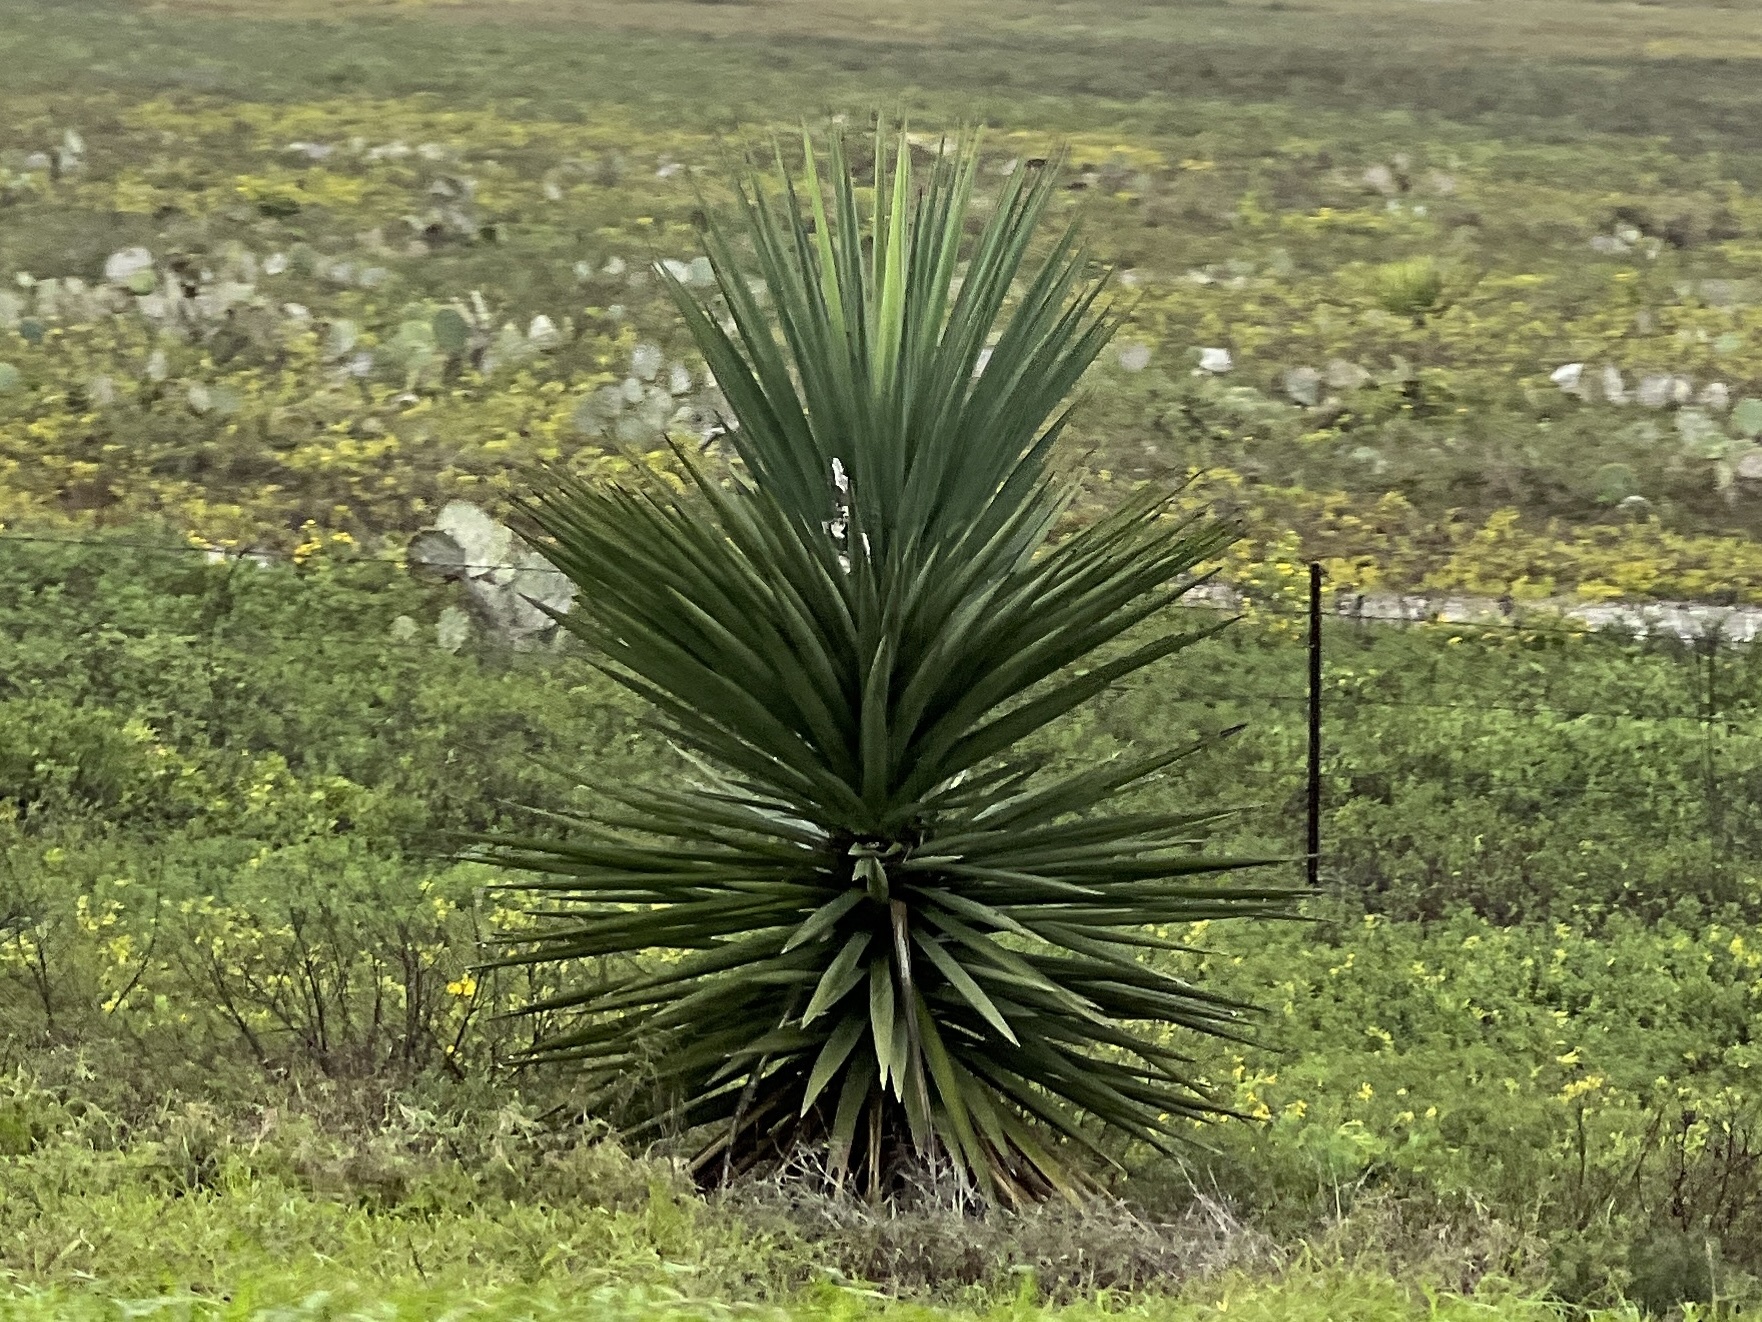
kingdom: Plantae
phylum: Tracheophyta
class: Liliopsida
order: Asparagales
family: Asparagaceae
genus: Yucca
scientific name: Yucca treculiana
